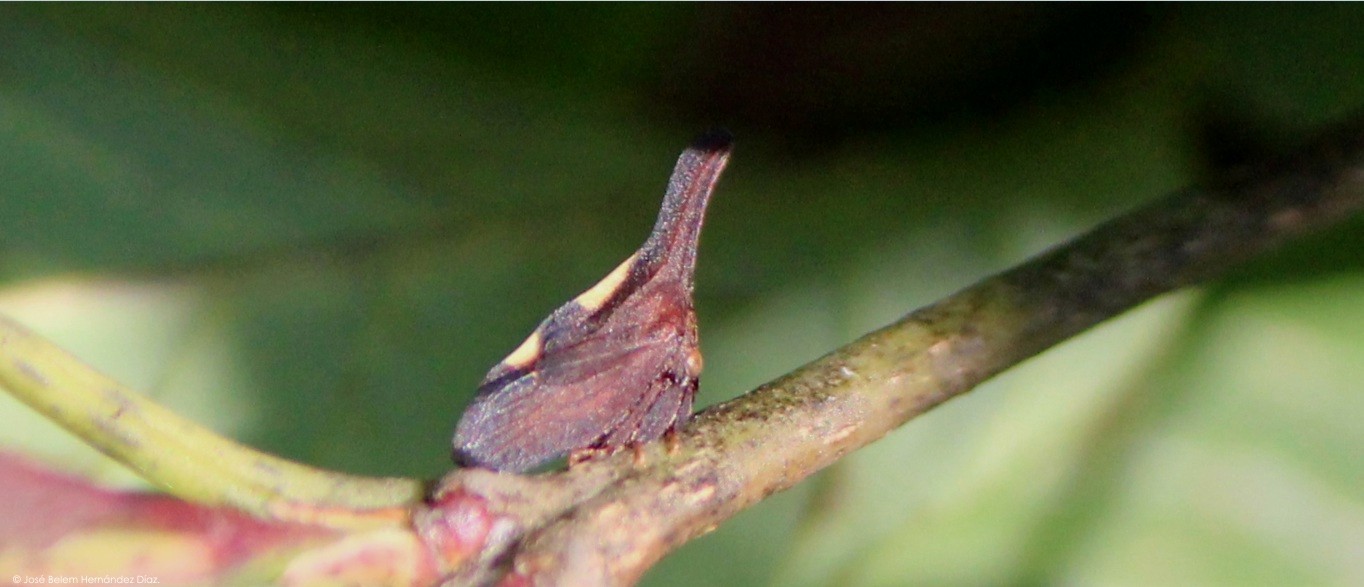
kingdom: Animalia
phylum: Arthropoda
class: Insecta
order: Hemiptera
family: Membracidae
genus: Enchenopa
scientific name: Enchenopa
